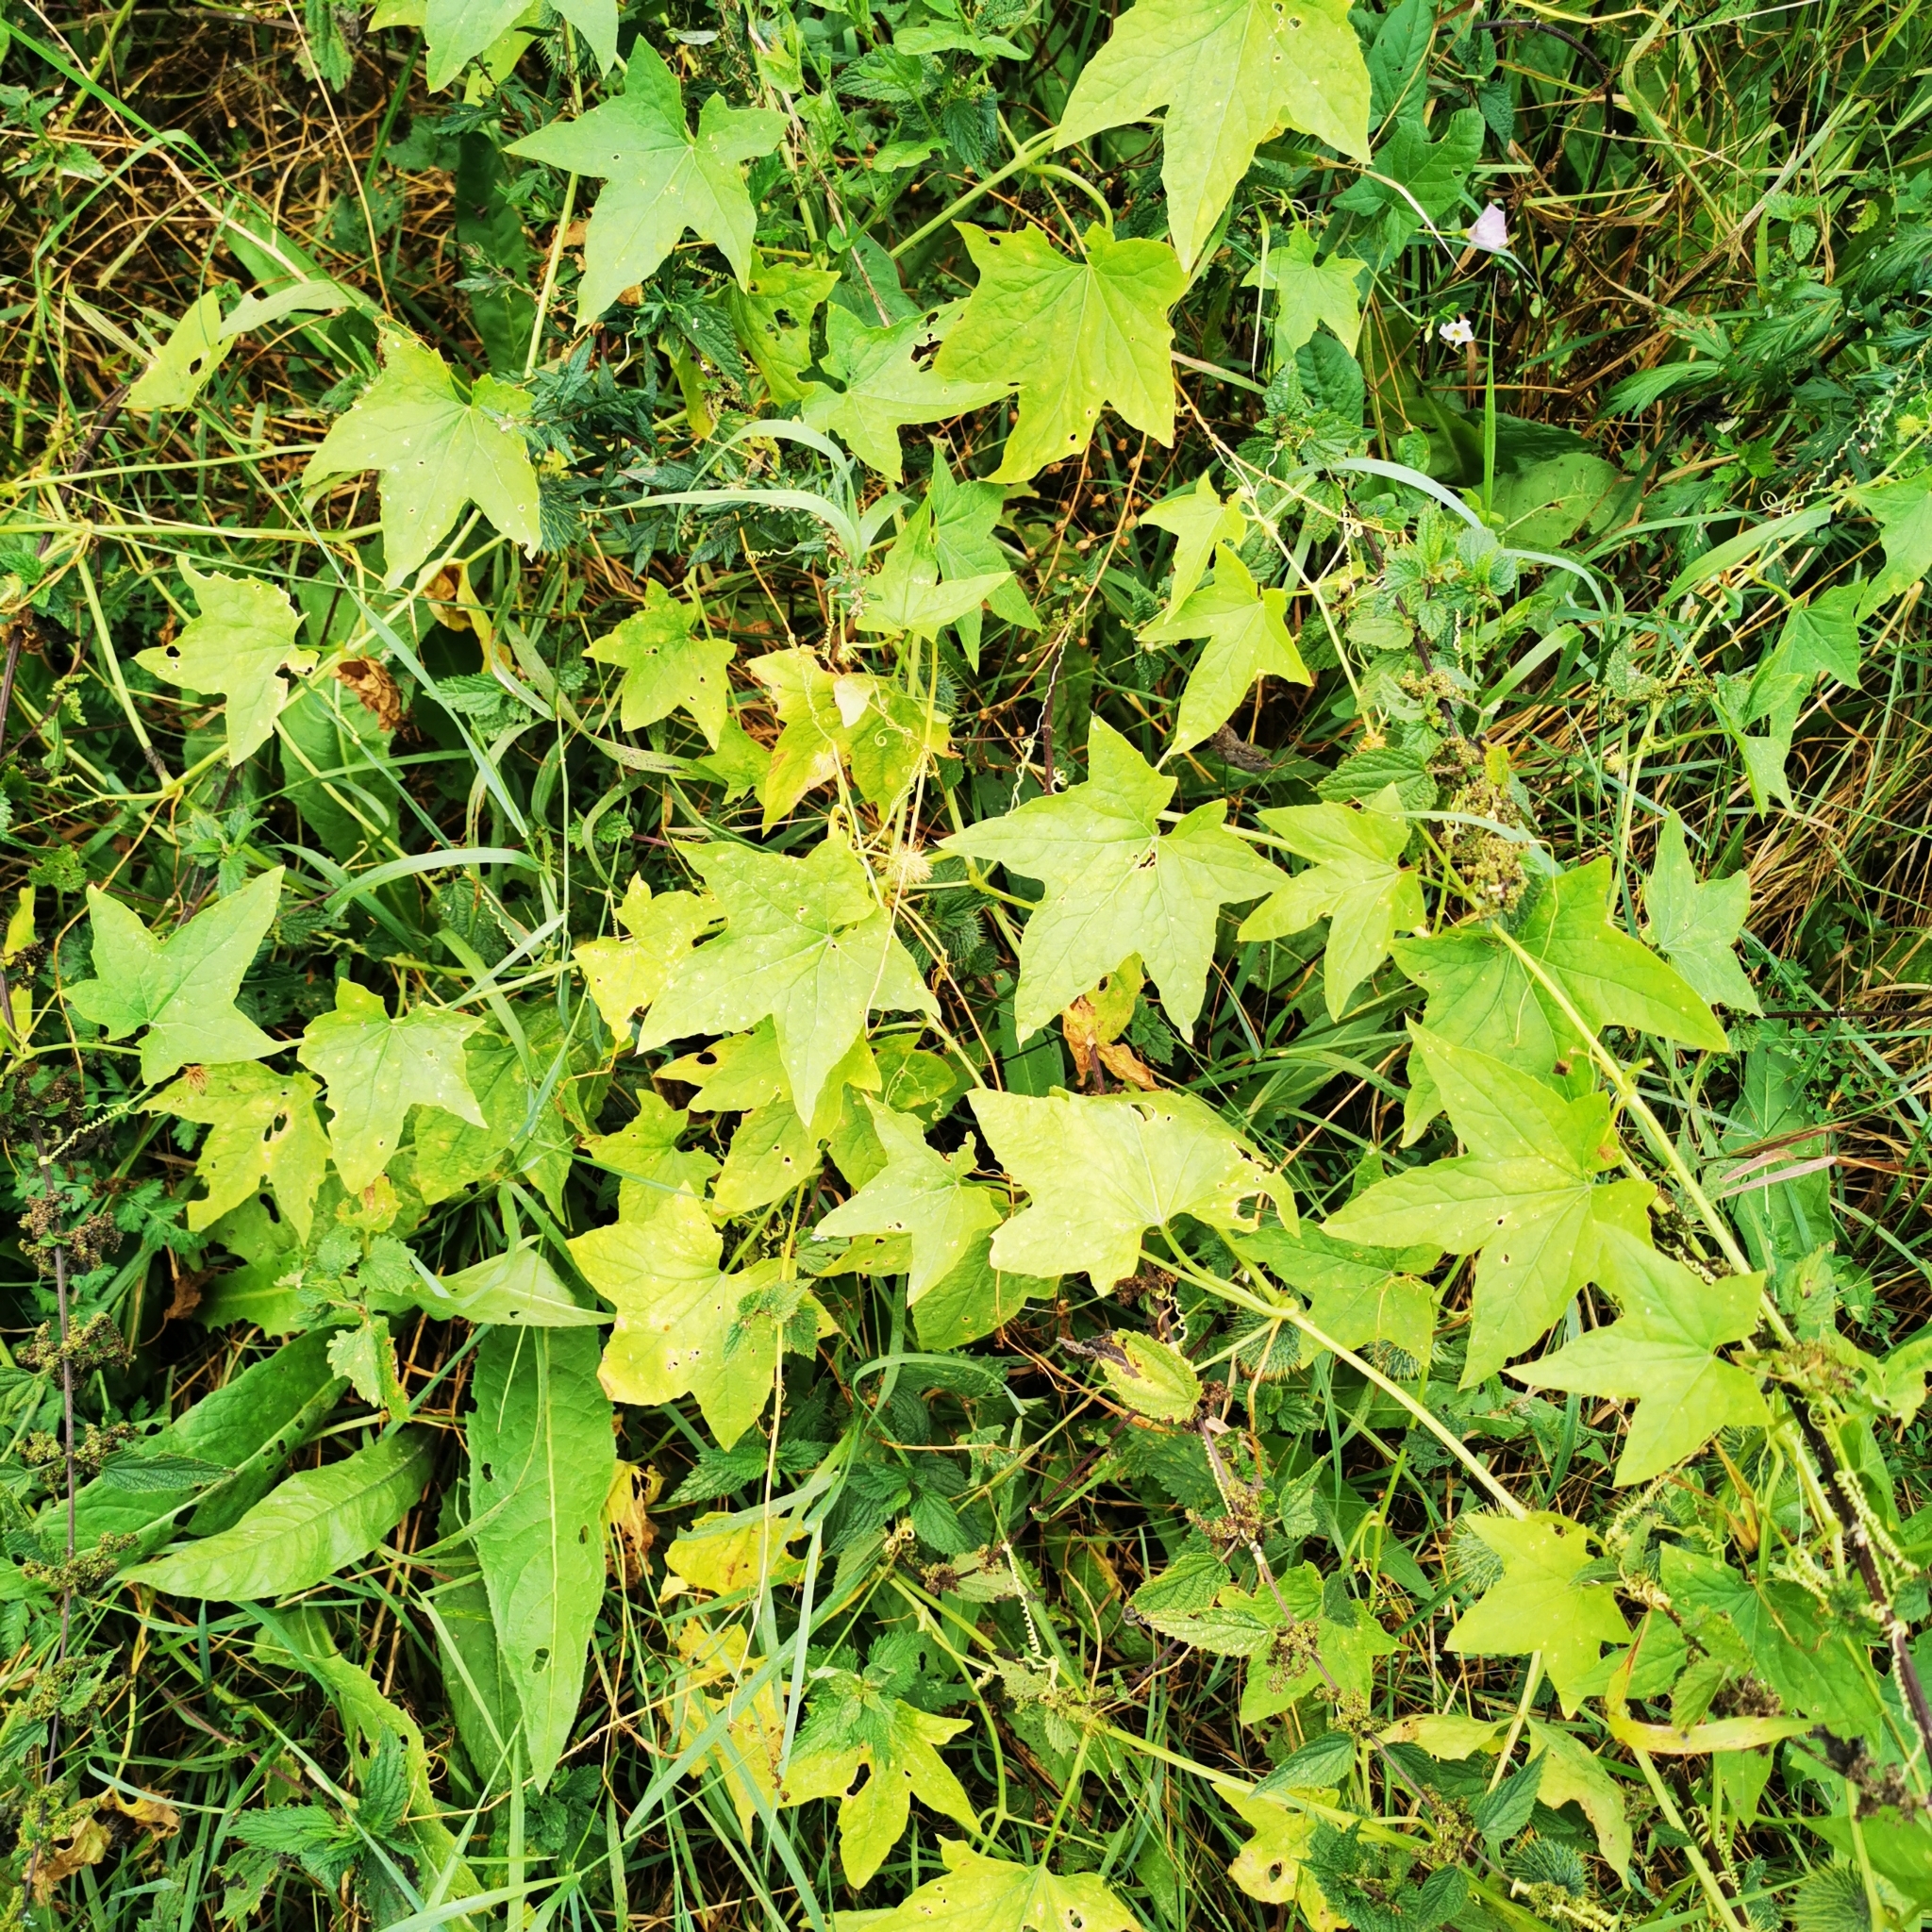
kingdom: Plantae
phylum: Tracheophyta
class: Magnoliopsida
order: Cucurbitales
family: Cucurbitaceae
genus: Echinocystis
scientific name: Echinocystis lobata
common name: Wild cucumber
